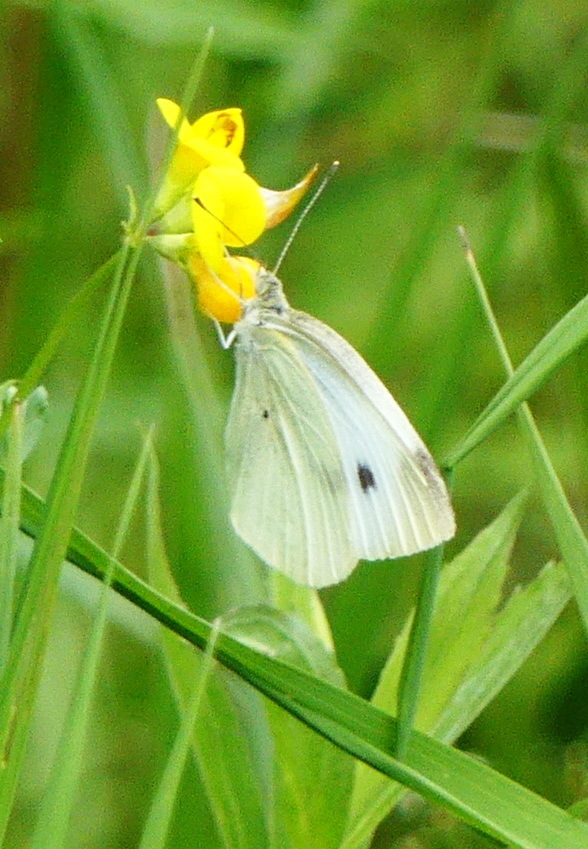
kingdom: Animalia
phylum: Arthropoda
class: Insecta
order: Lepidoptera
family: Pieridae
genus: Pieris
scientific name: Pieris rapae
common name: Small white
